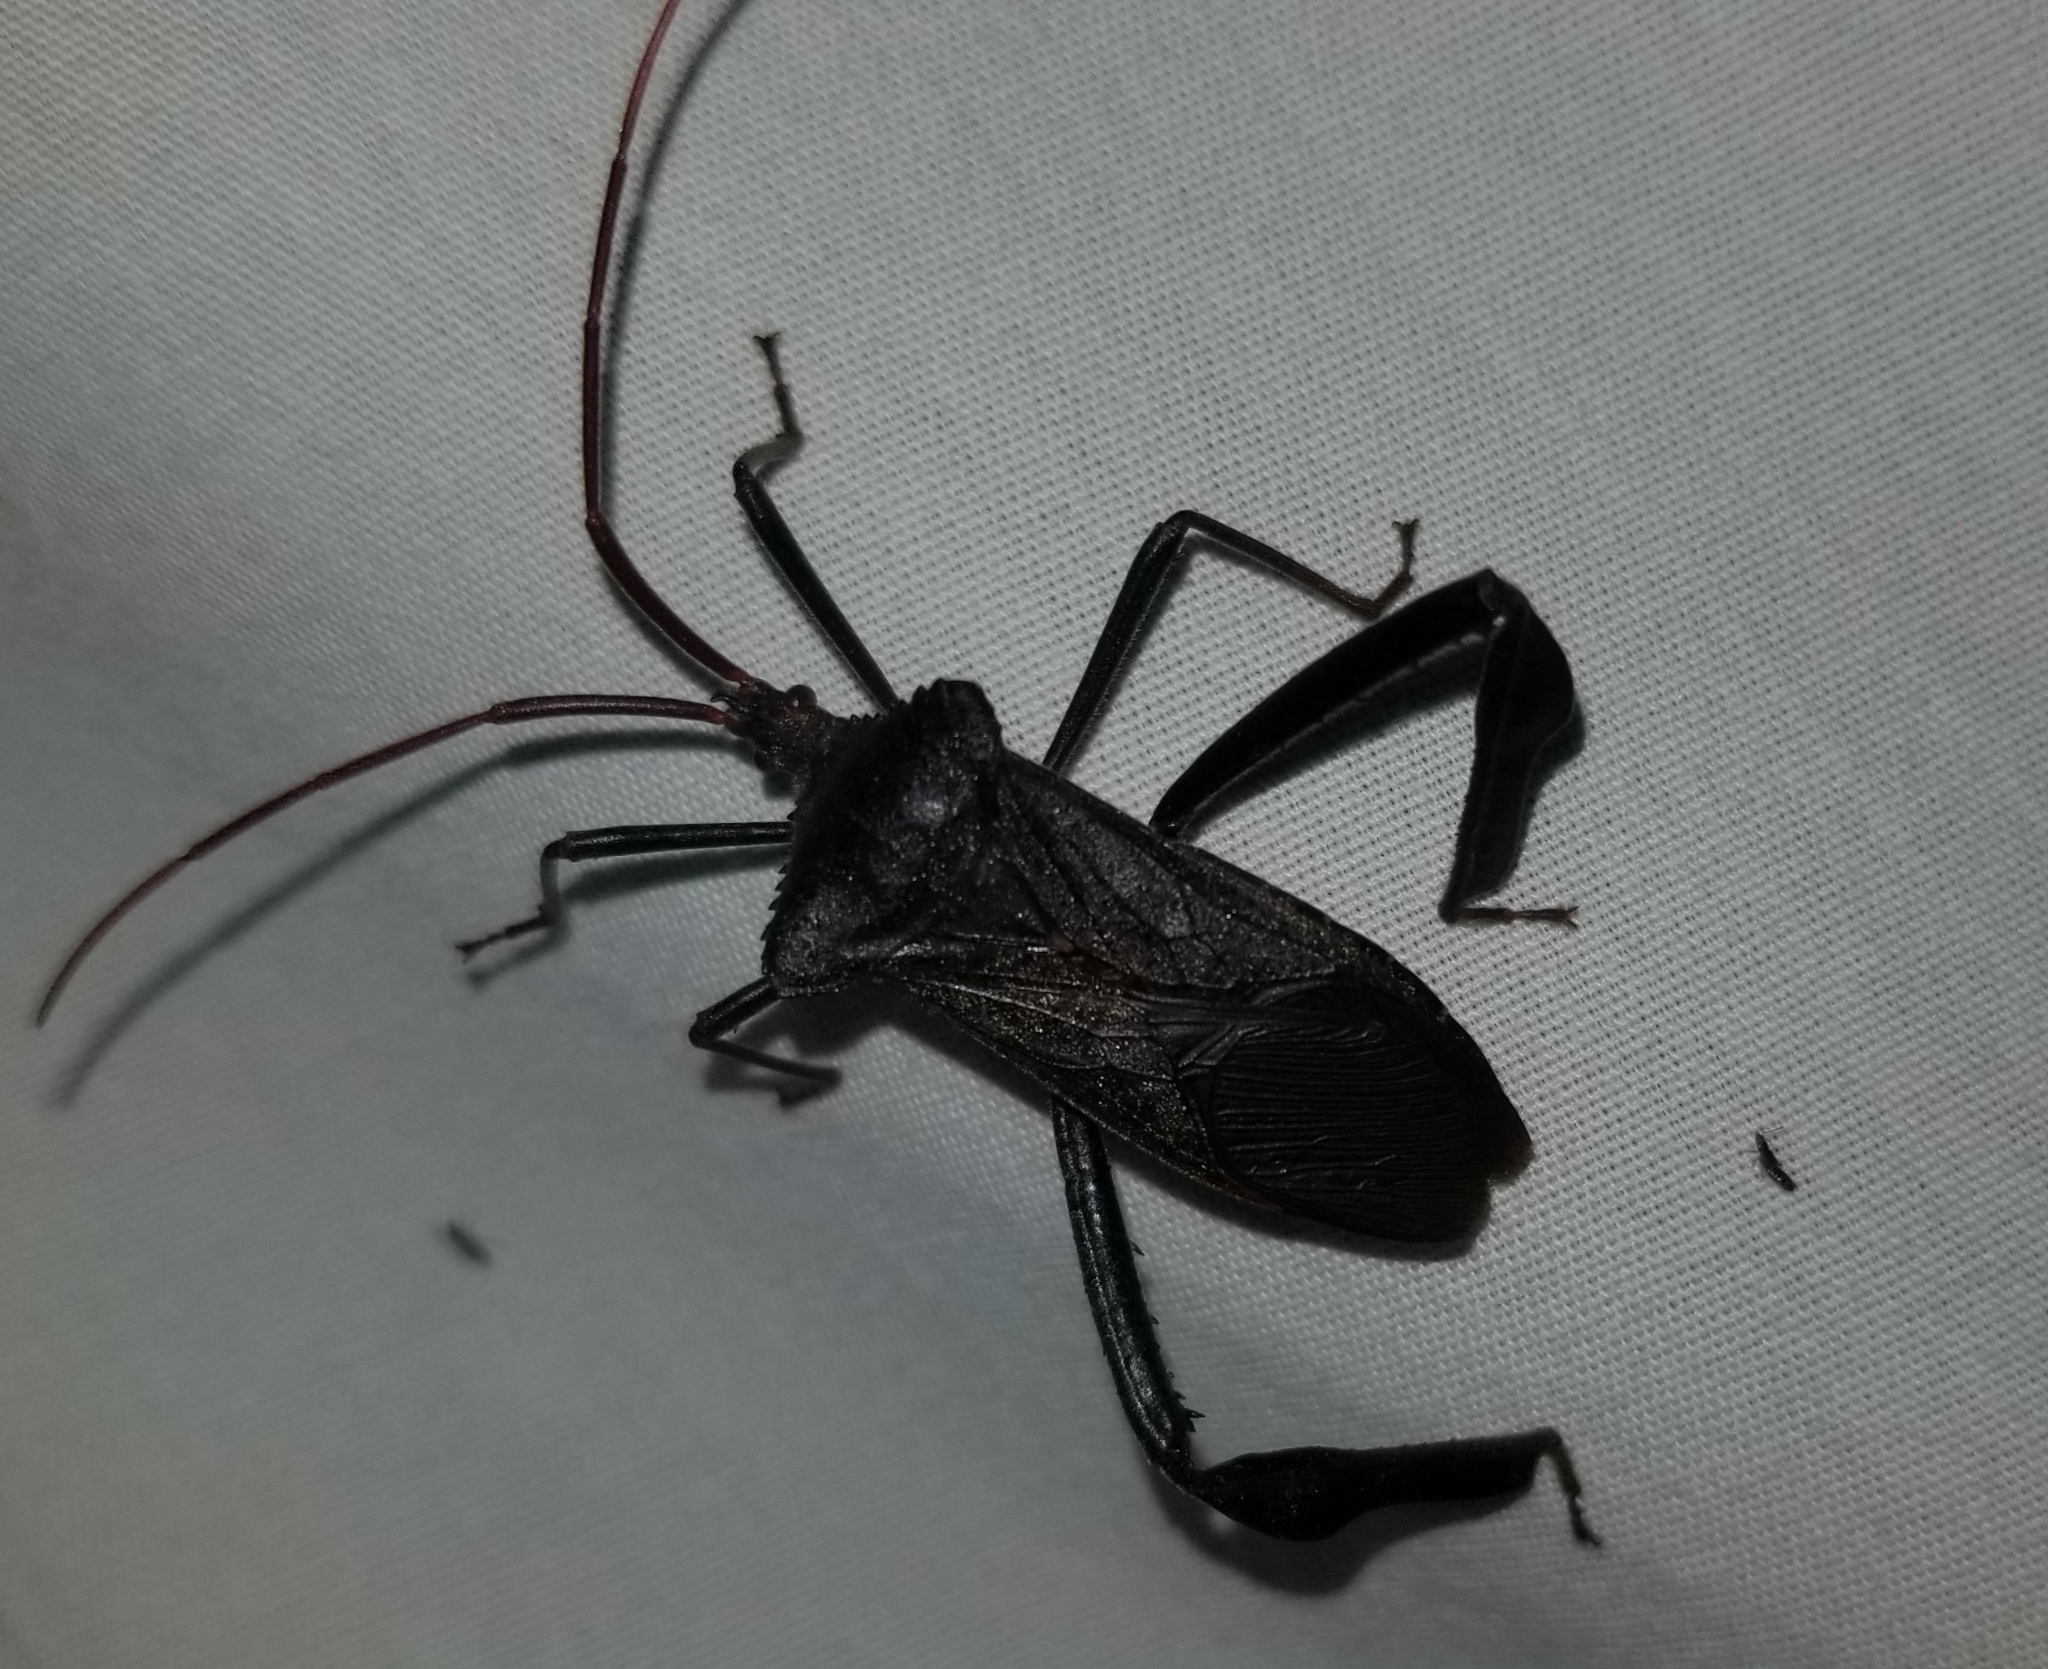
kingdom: Animalia
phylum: Arthropoda
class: Insecta
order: Hemiptera
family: Coreidae
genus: Acanthocephala
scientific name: Acanthocephala terminalis
